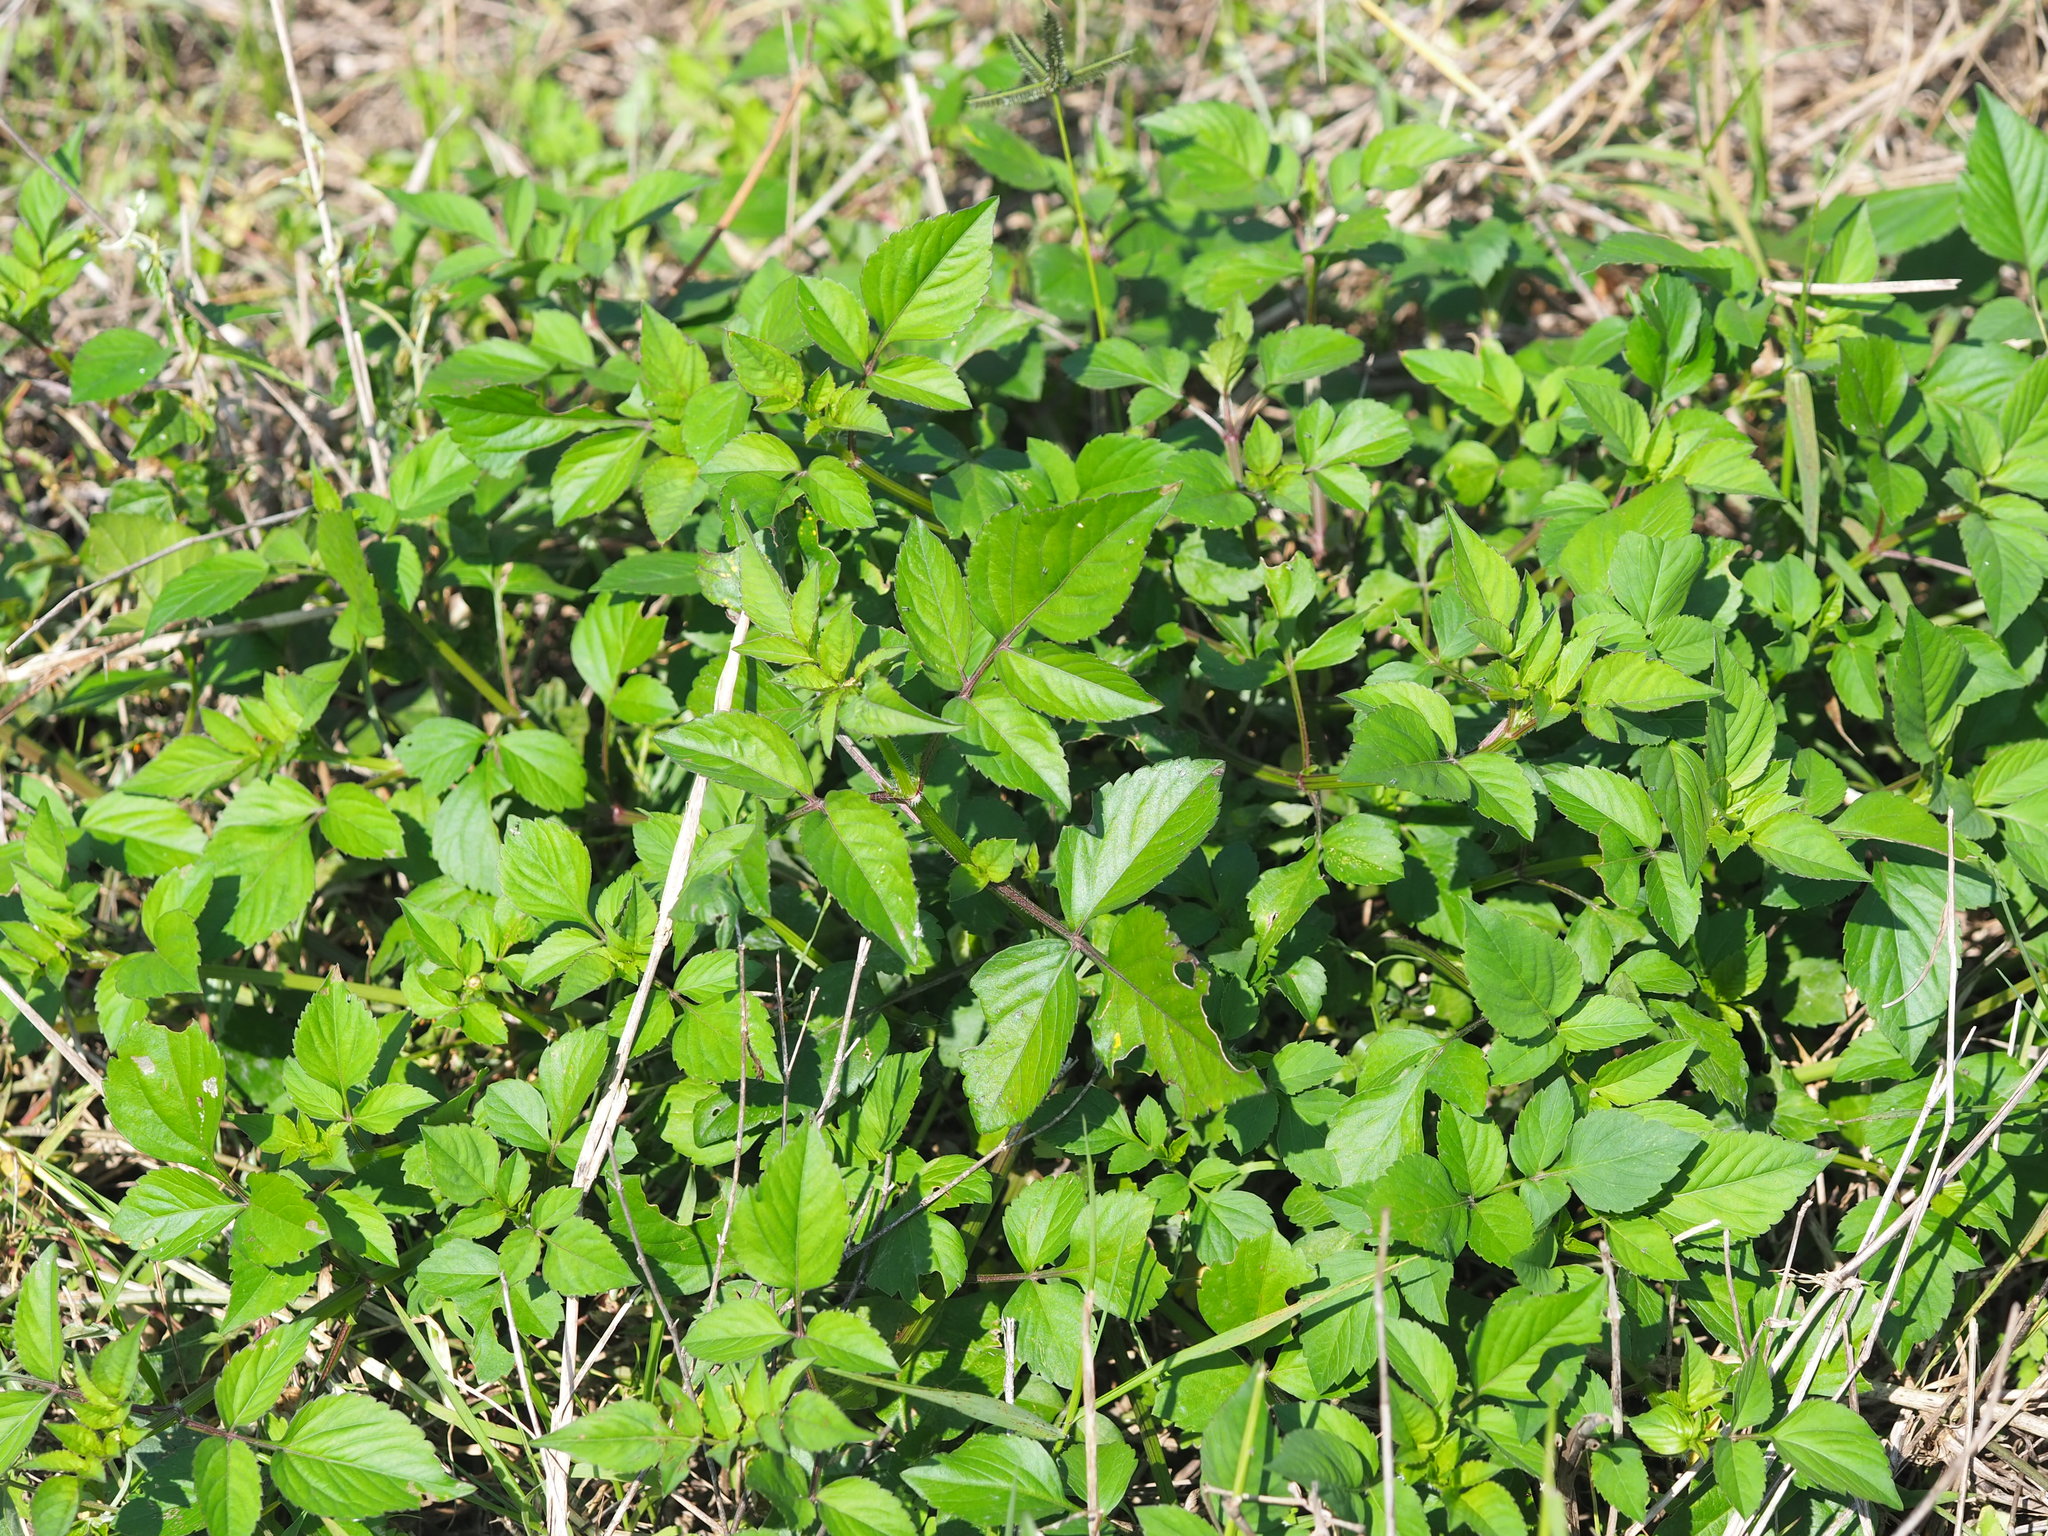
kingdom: Plantae
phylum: Tracheophyta
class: Magnoliopsida
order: Asterales
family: Asteraceae
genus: Bidens
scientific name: Bidens alba
